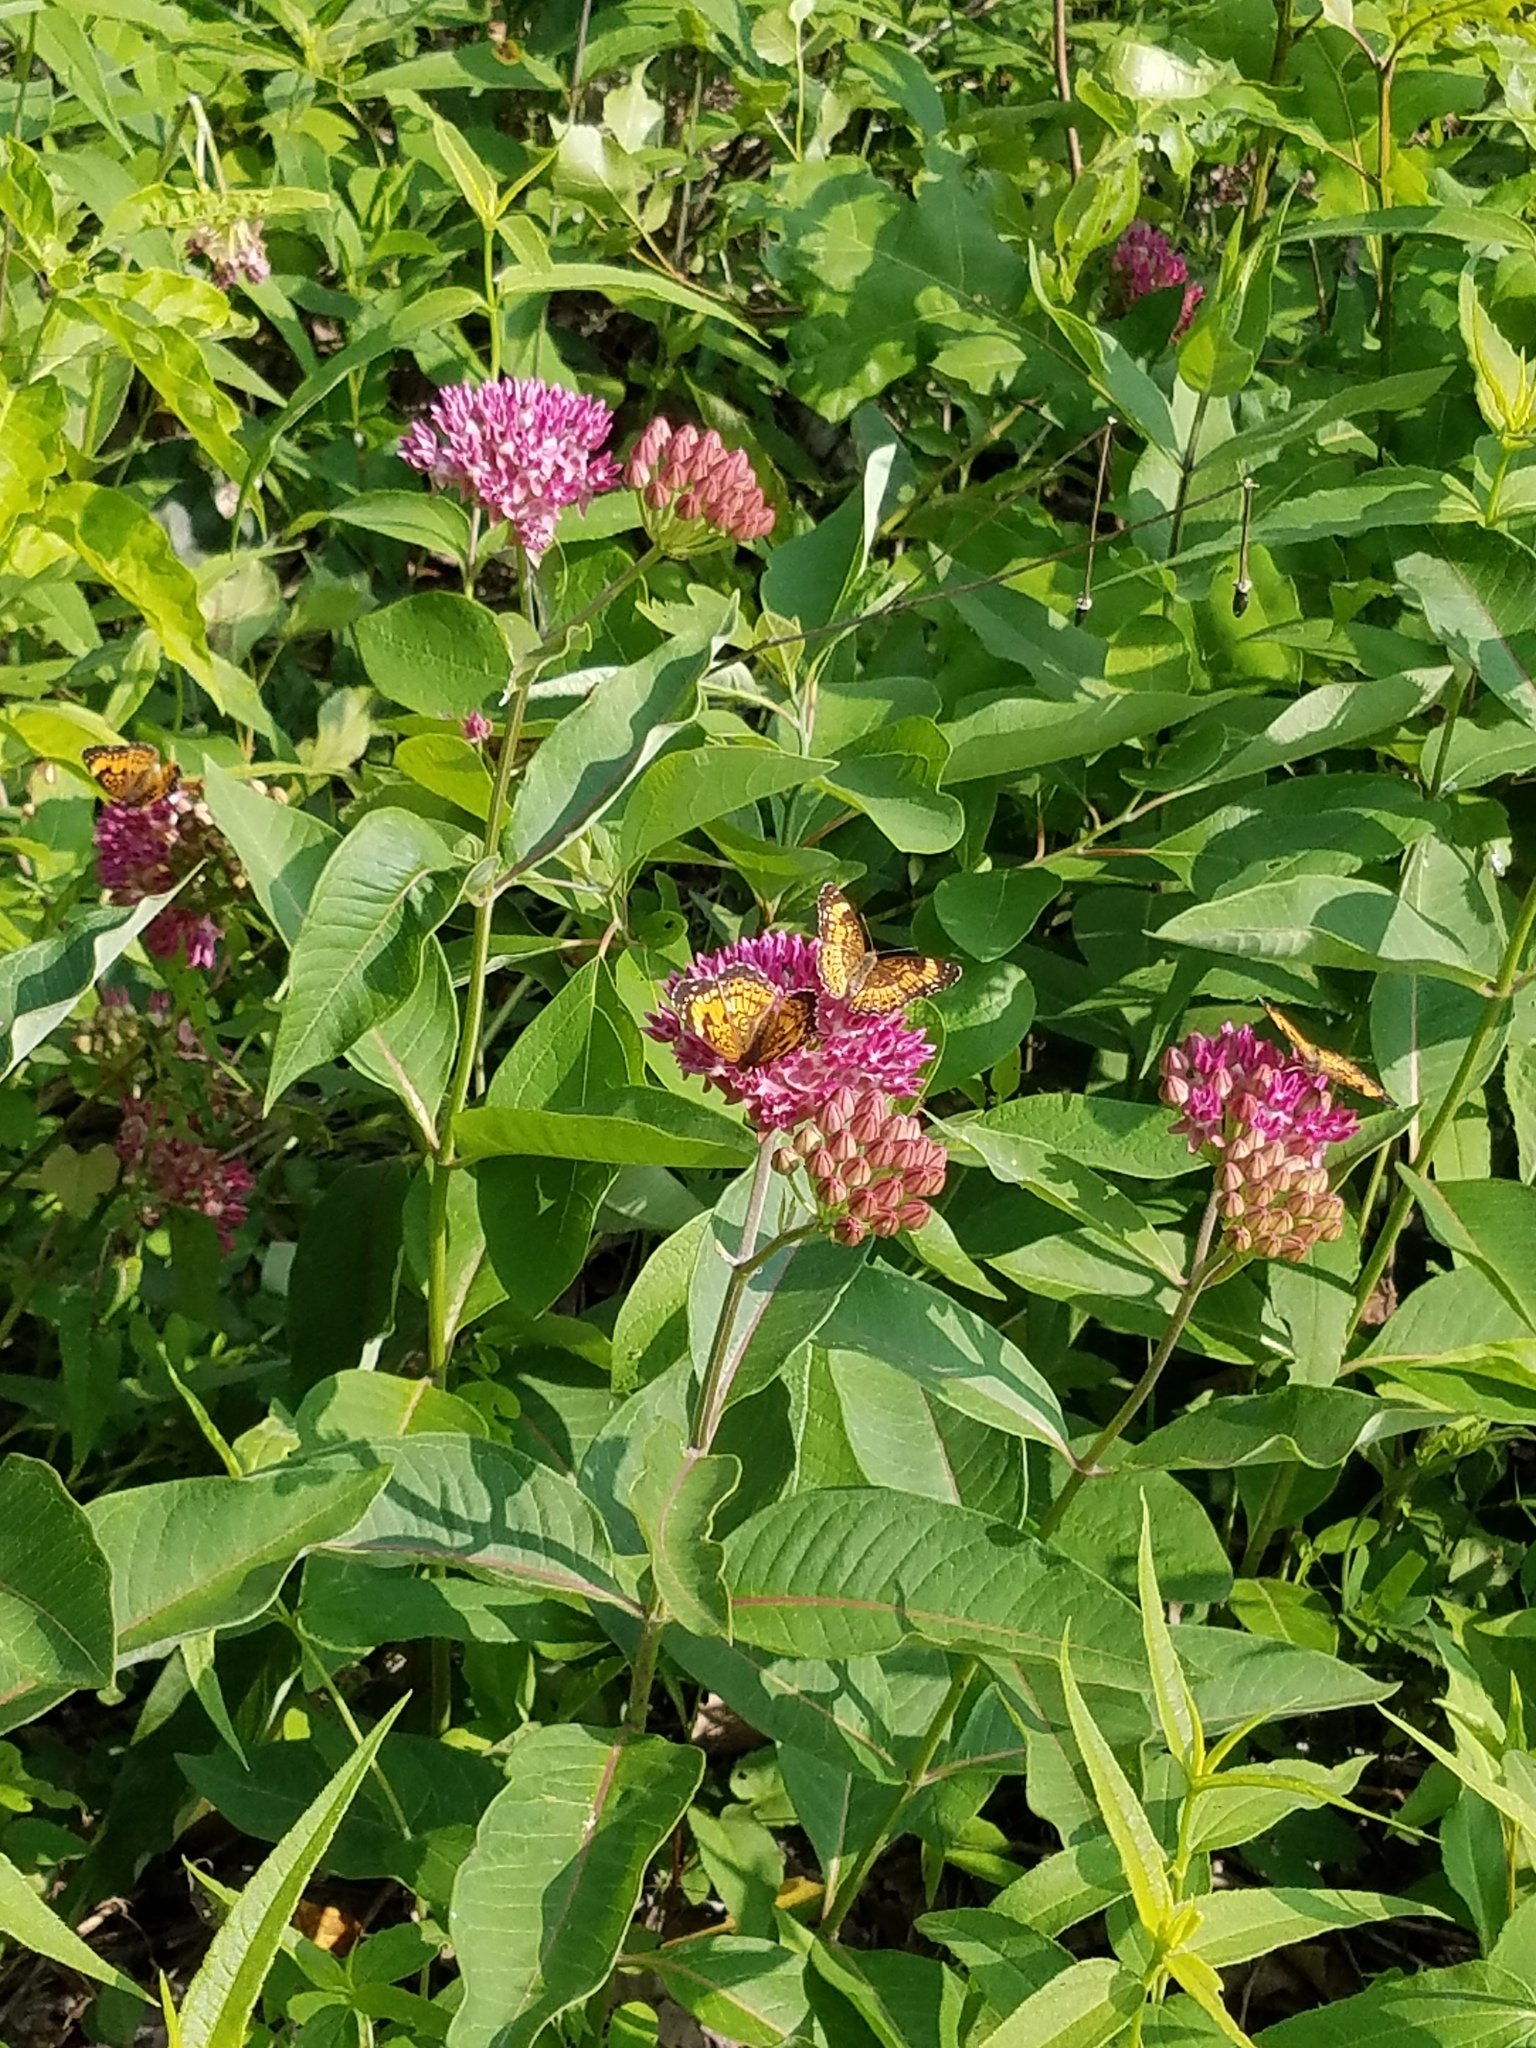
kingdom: Plantae
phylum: Tracheophyta
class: Magnoliopsida
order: Gentianales
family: Apocynaceae
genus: Asclepias
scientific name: Asclepias purpurascens
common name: Purple milkweed
